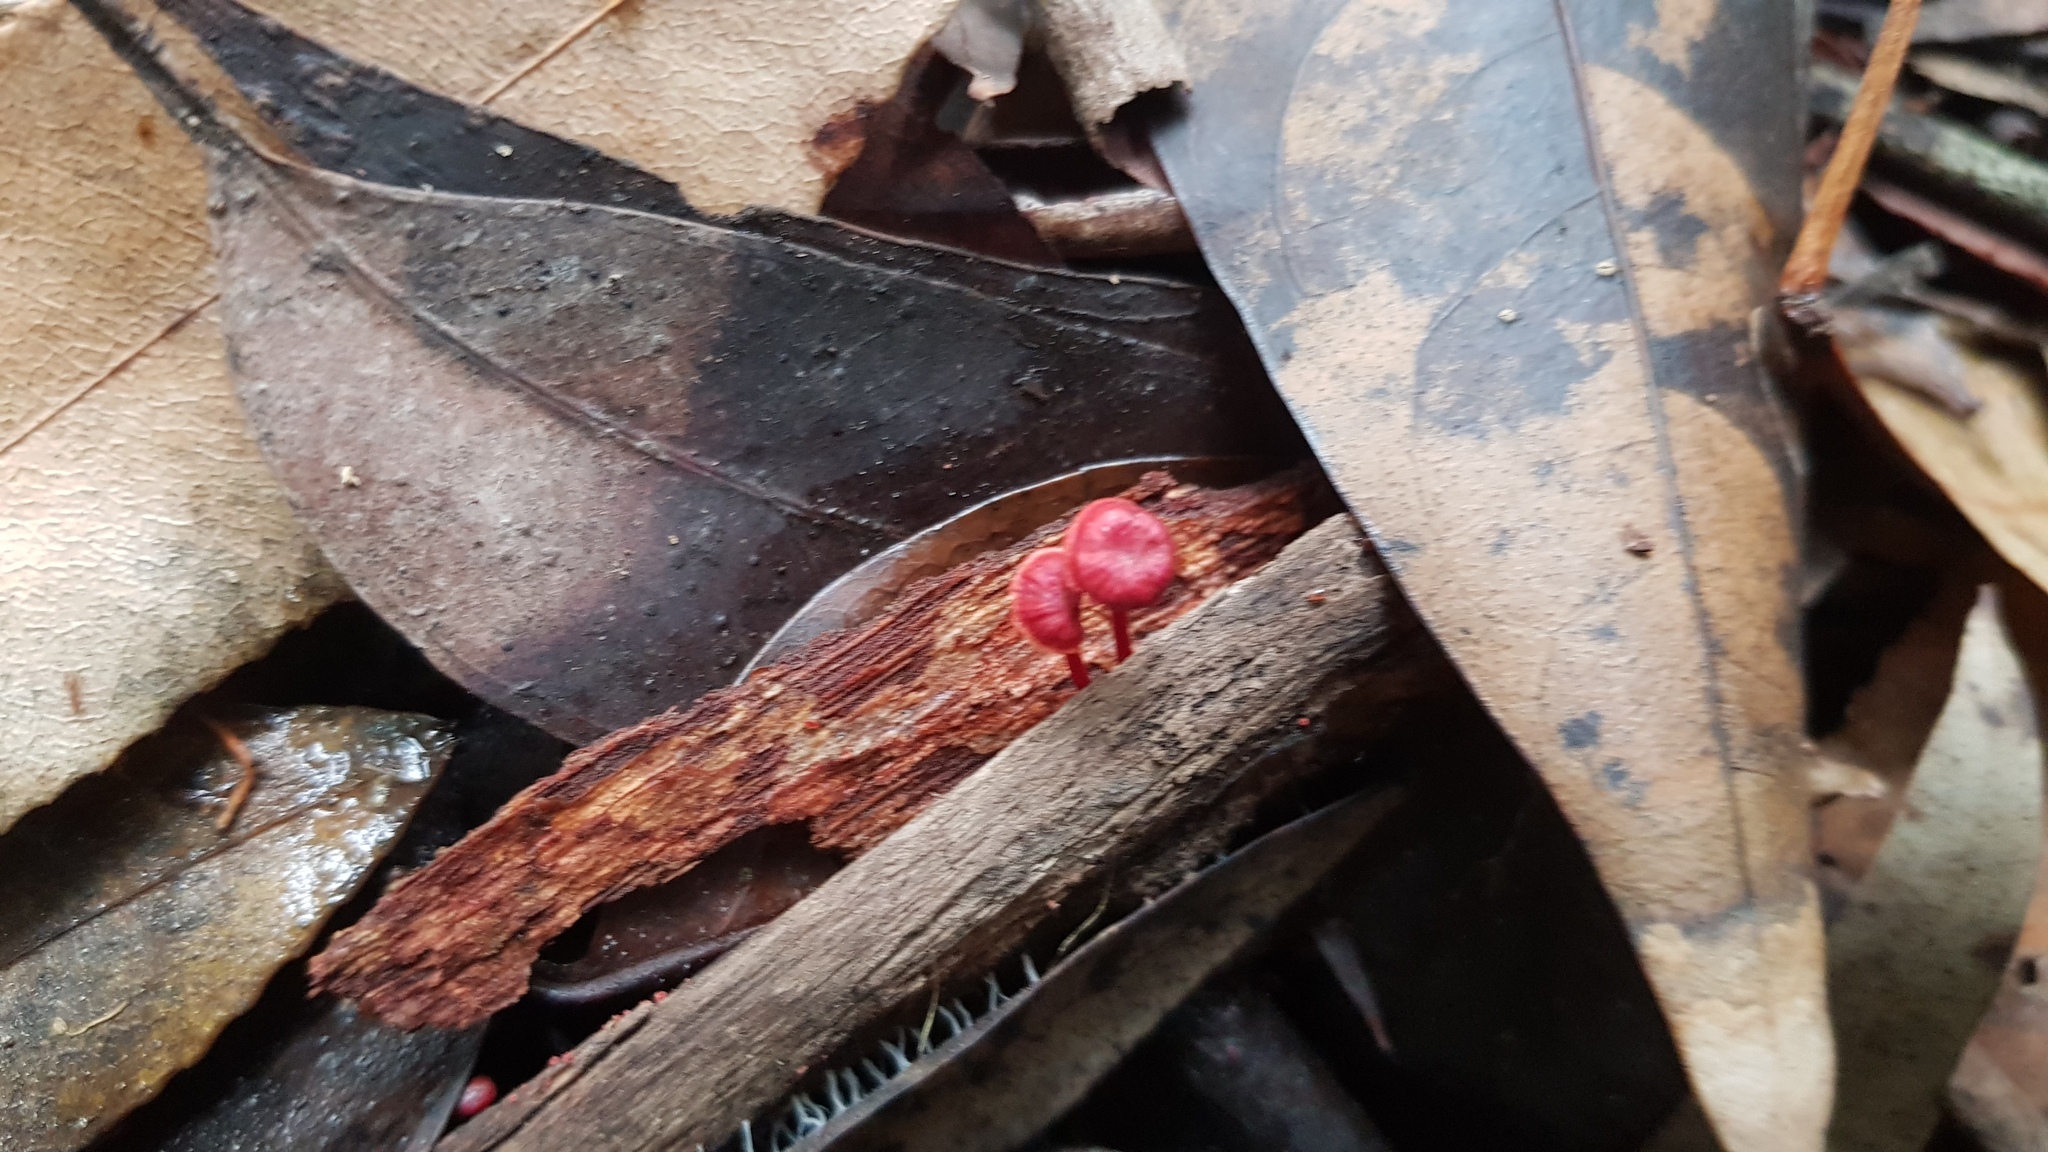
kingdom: Fungi
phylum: Basidiomycota
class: Agaricomycetes
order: Agaricales
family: Mycenaceae
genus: Cruentomycena
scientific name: Cruentomycena viscidocruenta
